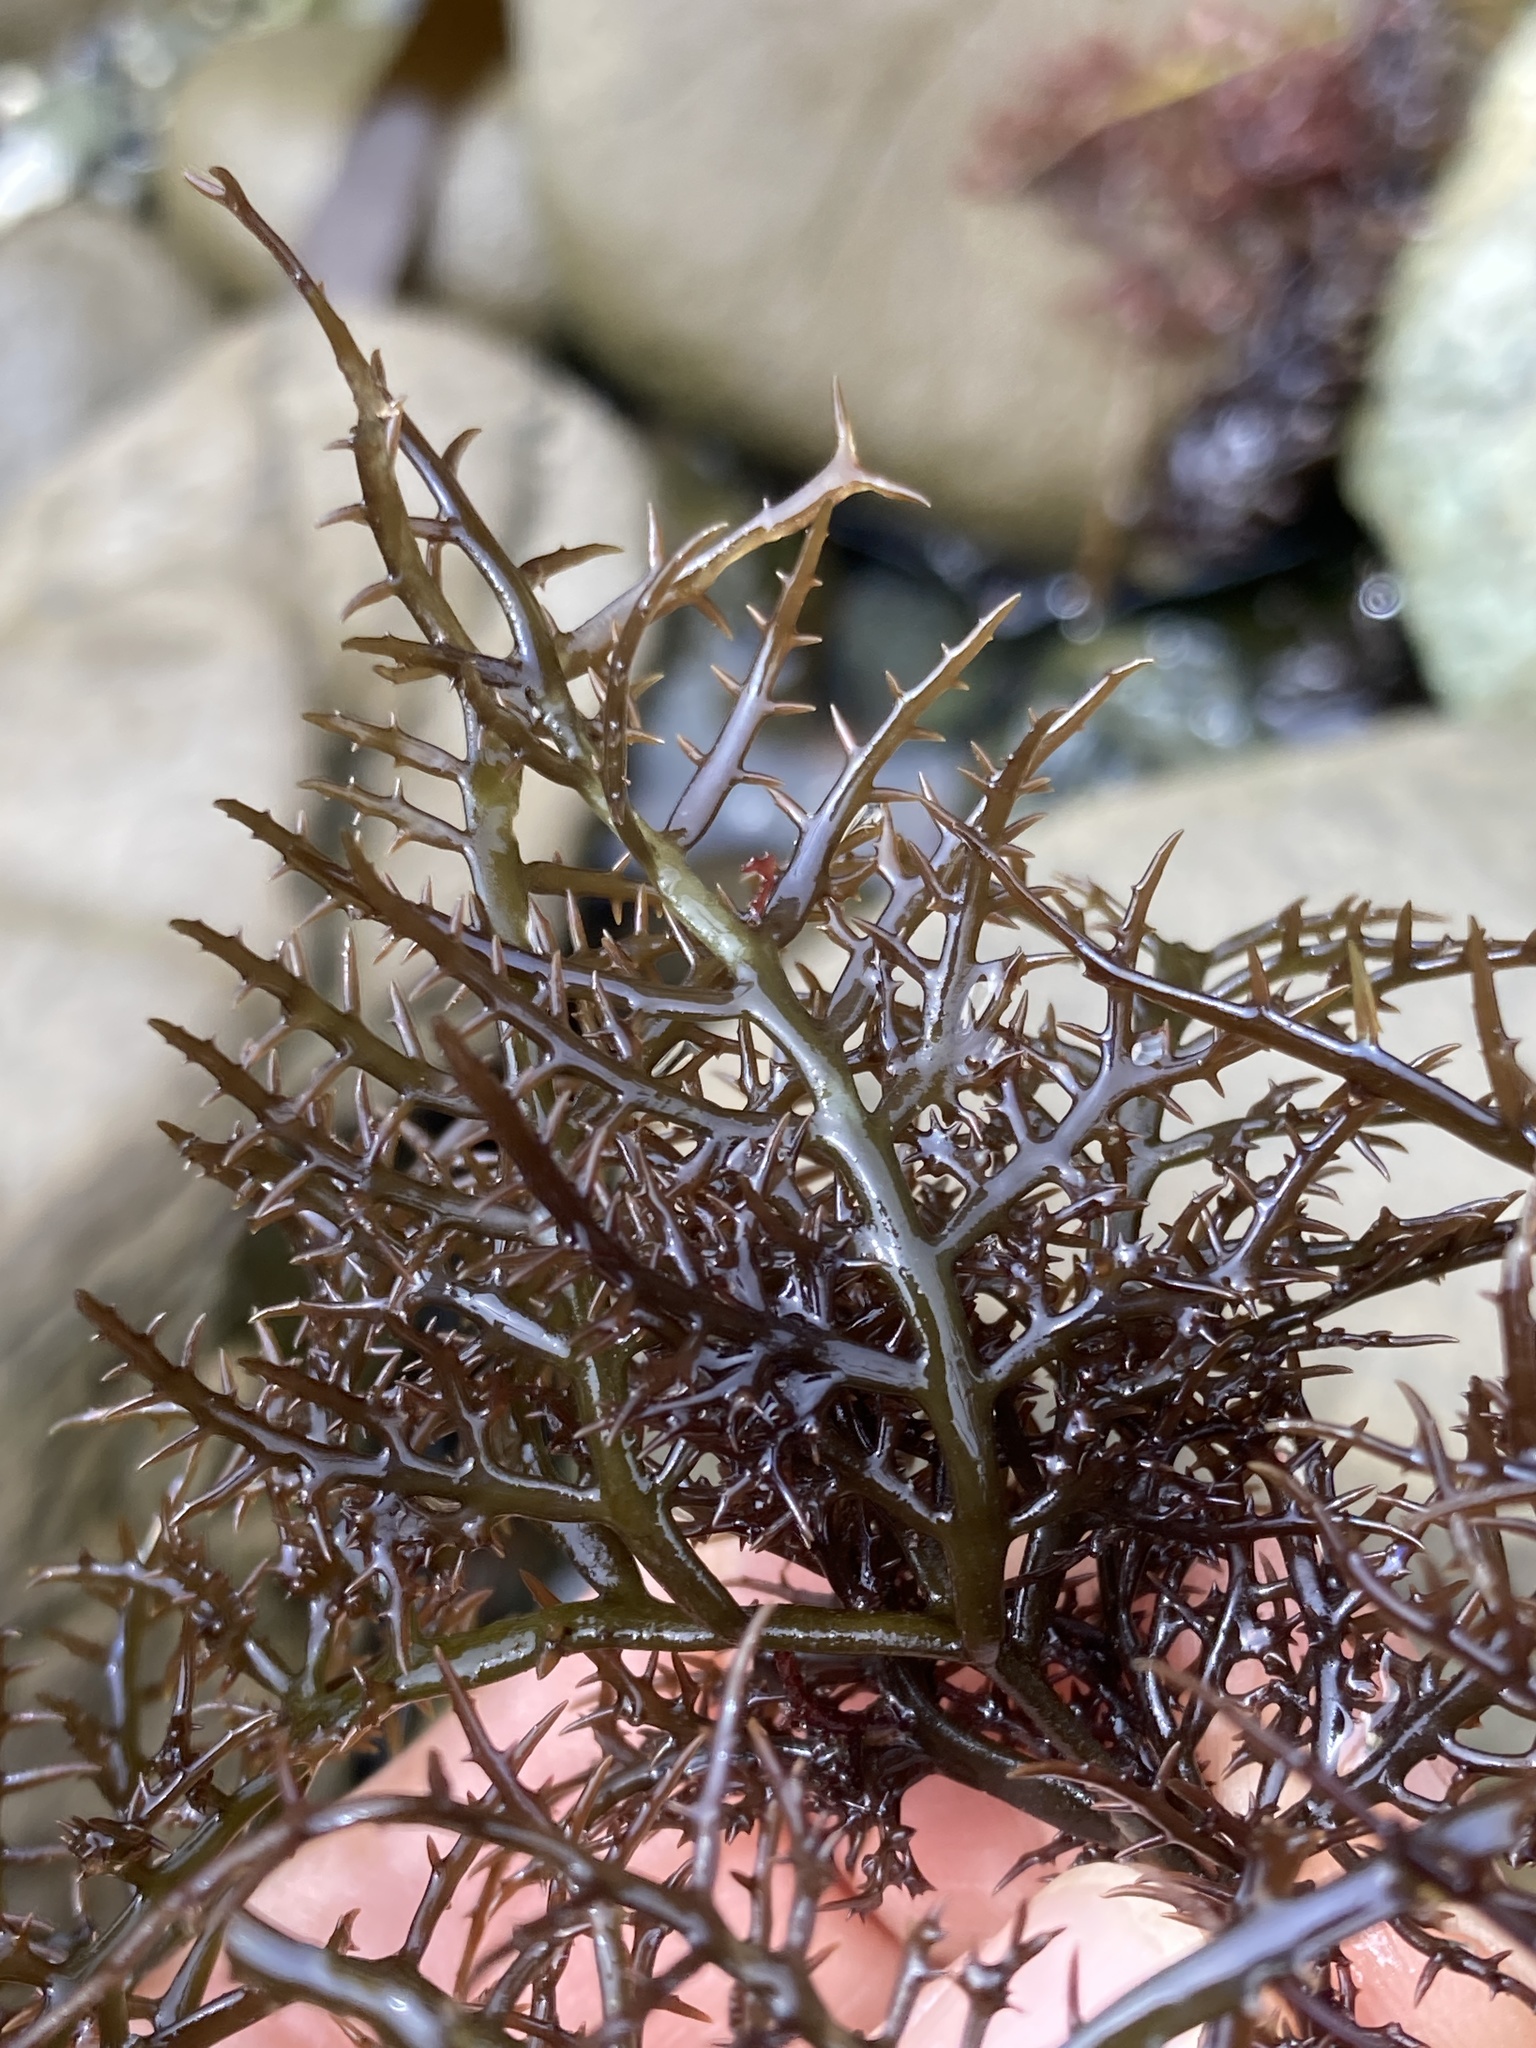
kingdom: Plantae
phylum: Rhodophyta
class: Florideophyceae
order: Gigartinales
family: Gigartinaceae
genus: Chondracanthus
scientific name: Chondracanthus canaliculatus
